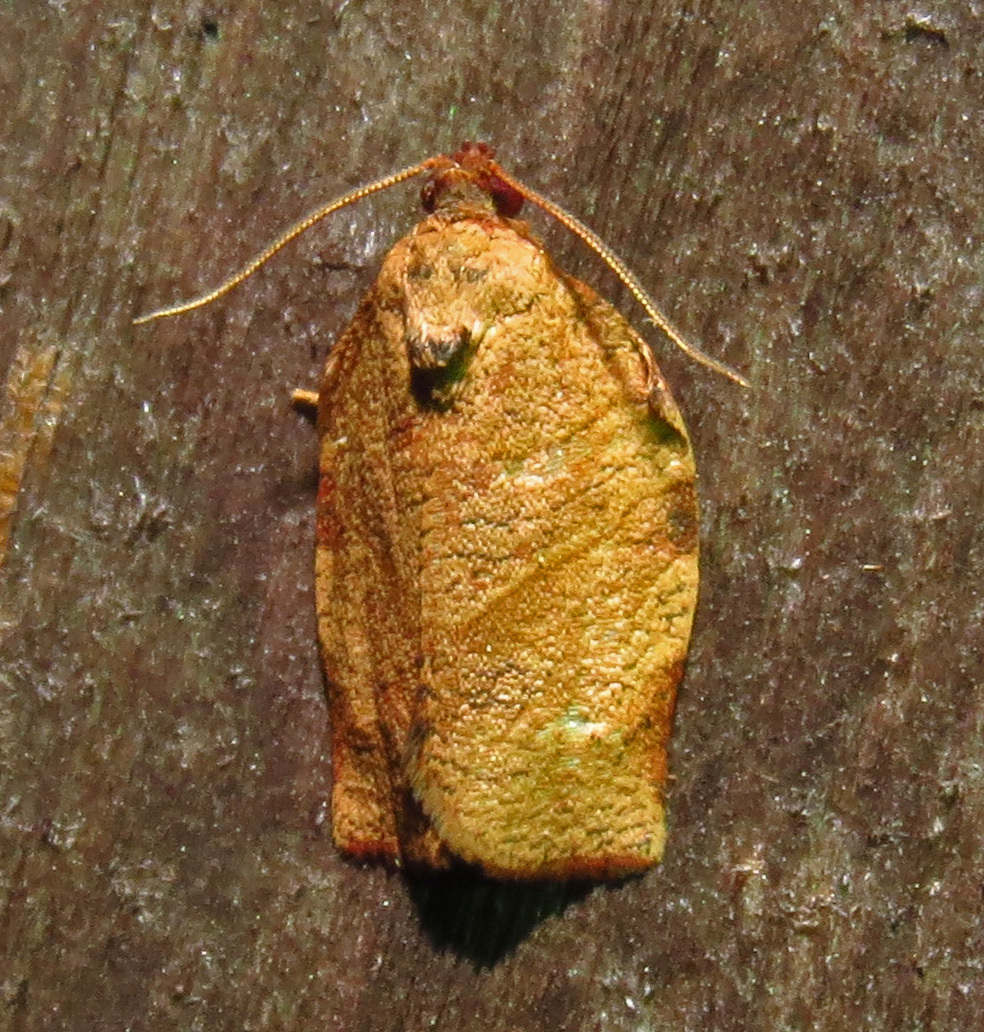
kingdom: Animalia
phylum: Arthropoda
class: Insecta
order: Lepidoptera
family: Tortricidae
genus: Choristoneura
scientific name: Choristoneura rosaceana
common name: Oblique-banded leafroller moth
